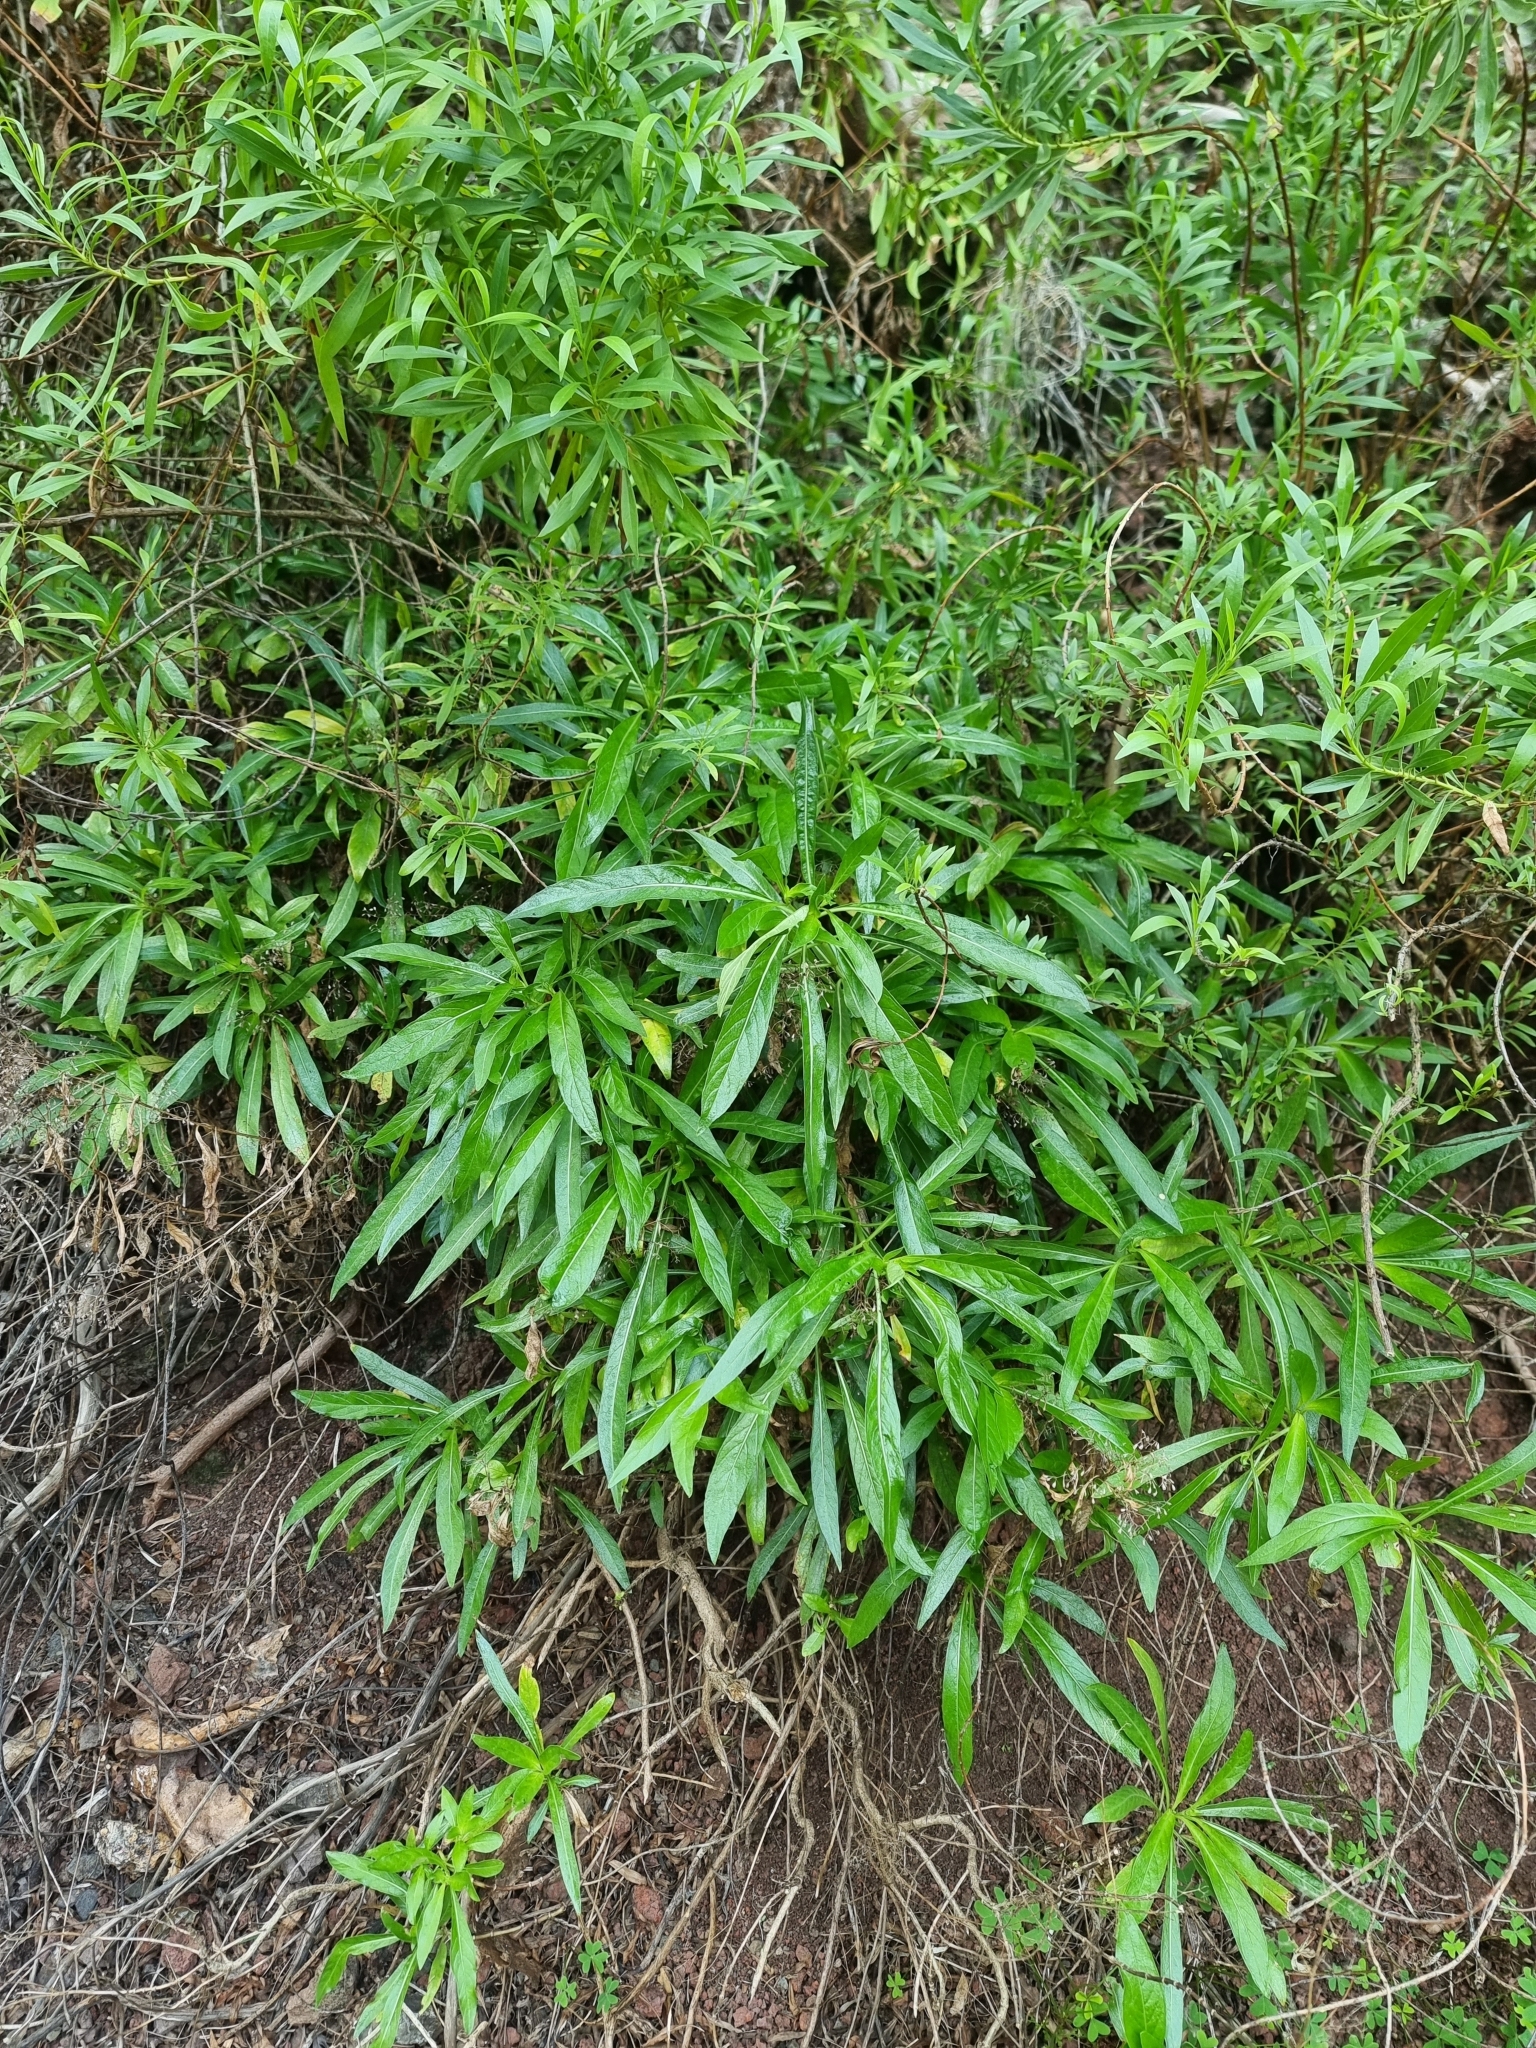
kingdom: Plantae
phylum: Tracheophyta
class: Magnoliopsida
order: Gentianales
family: Rubiaceae
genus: Phyllis
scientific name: Phyllis nobla
